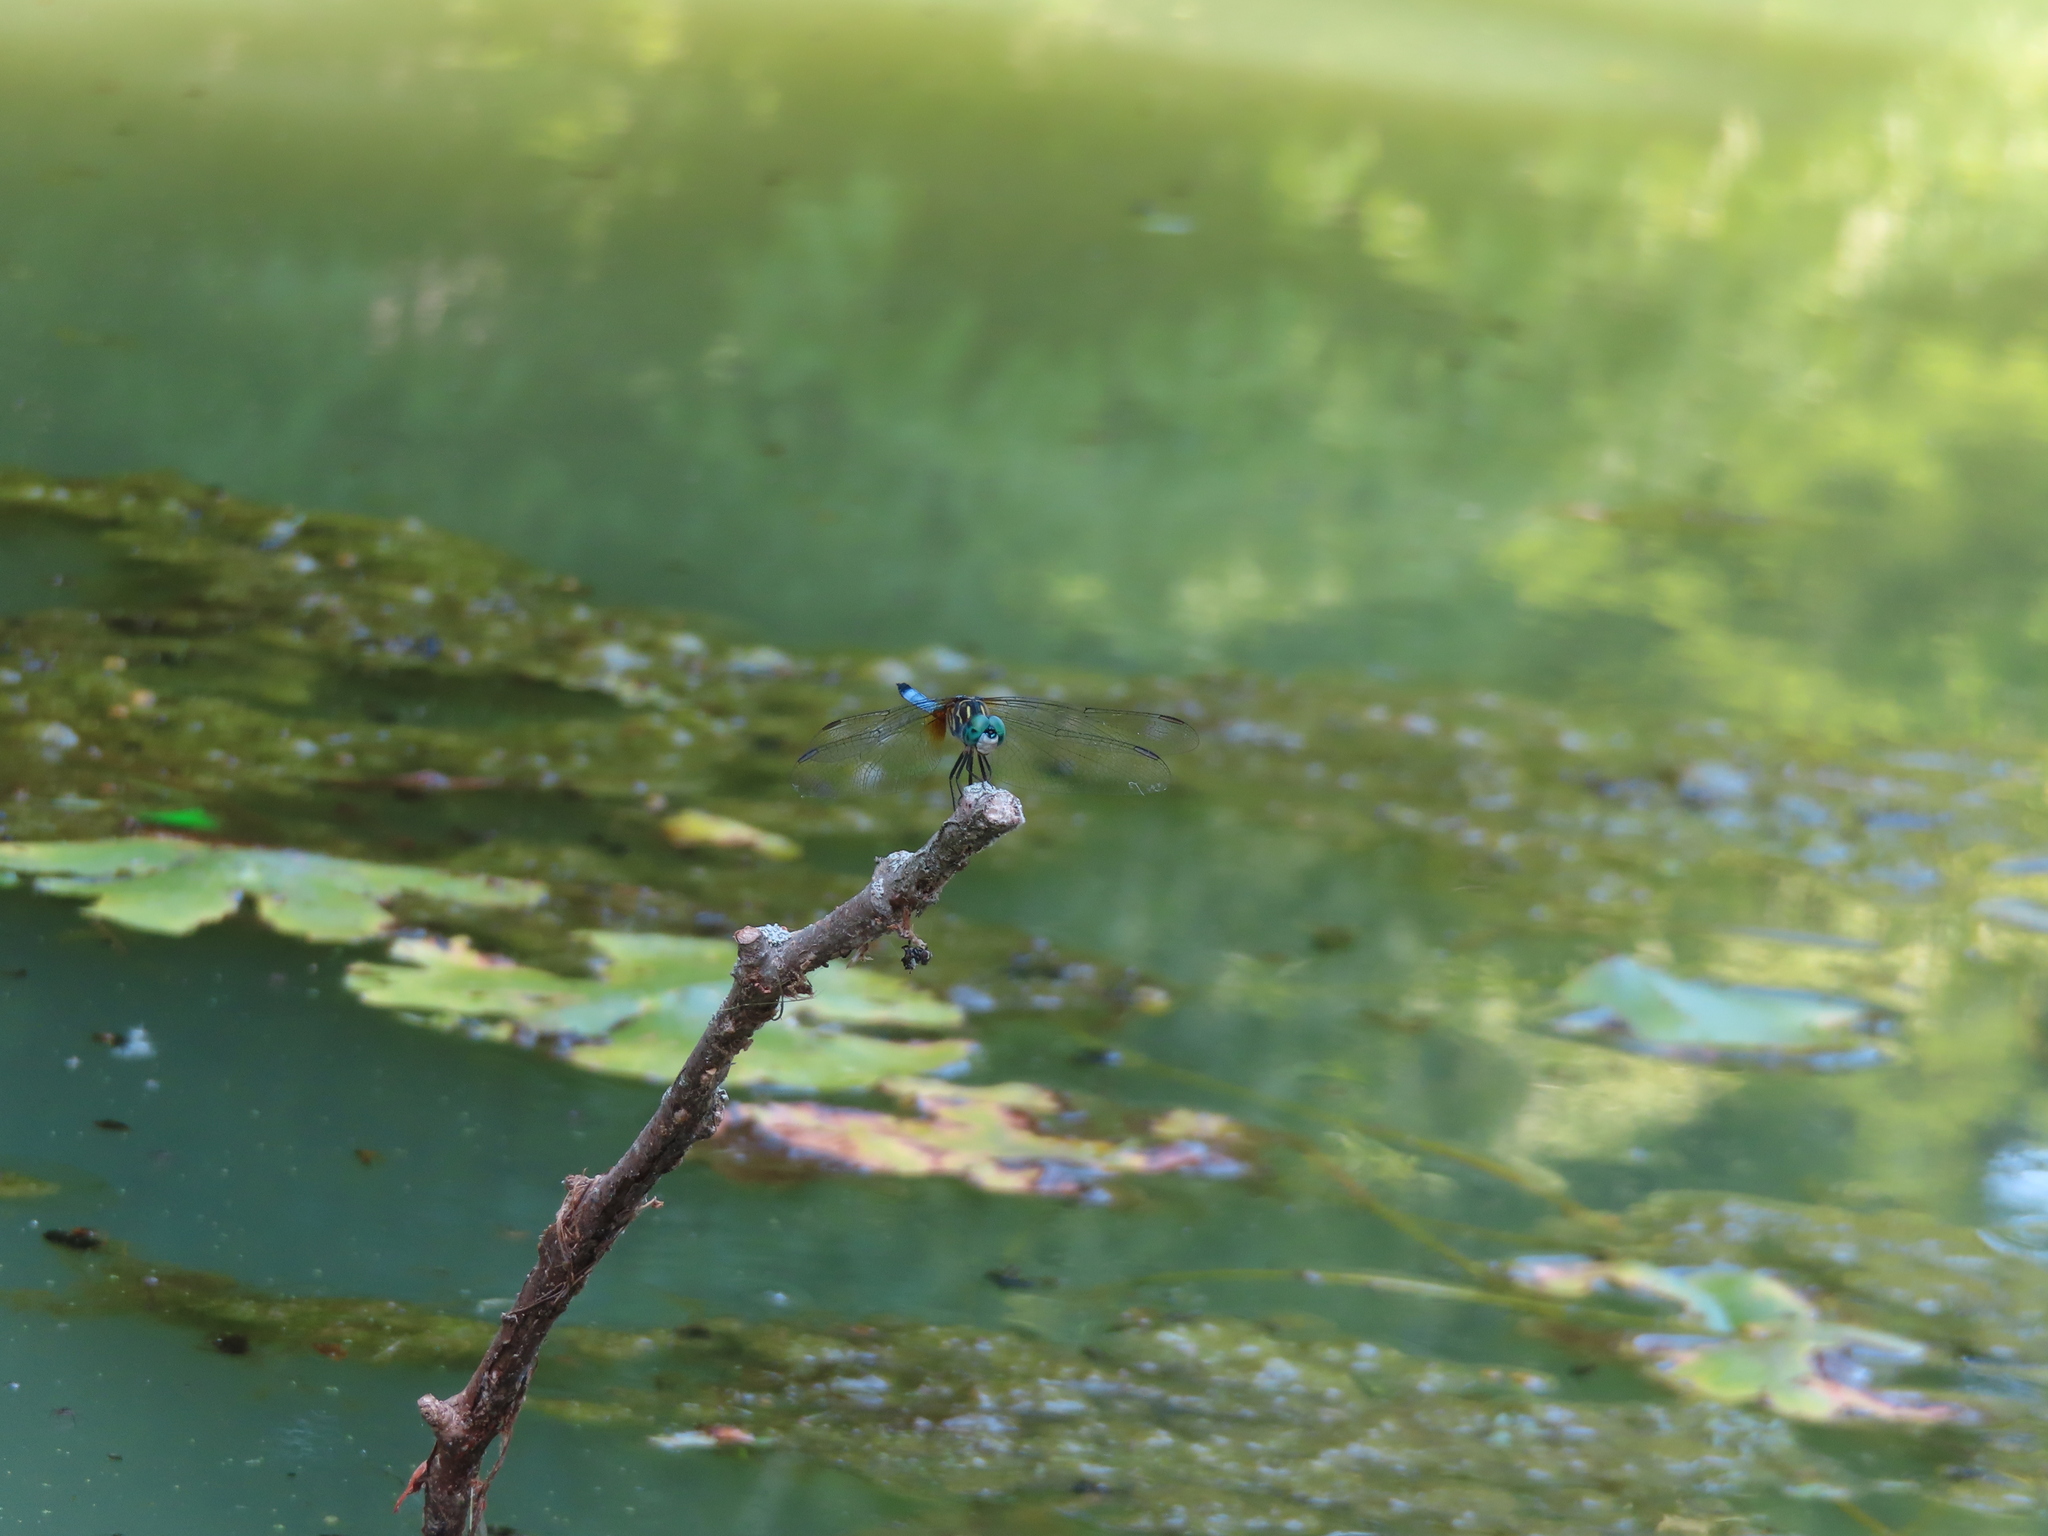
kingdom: Animalia
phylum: Arthropoda
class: Insecta
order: Odonata
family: Libellulidae
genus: Pachydiplax
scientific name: Pachydiplax longipennis
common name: Blue dasher
